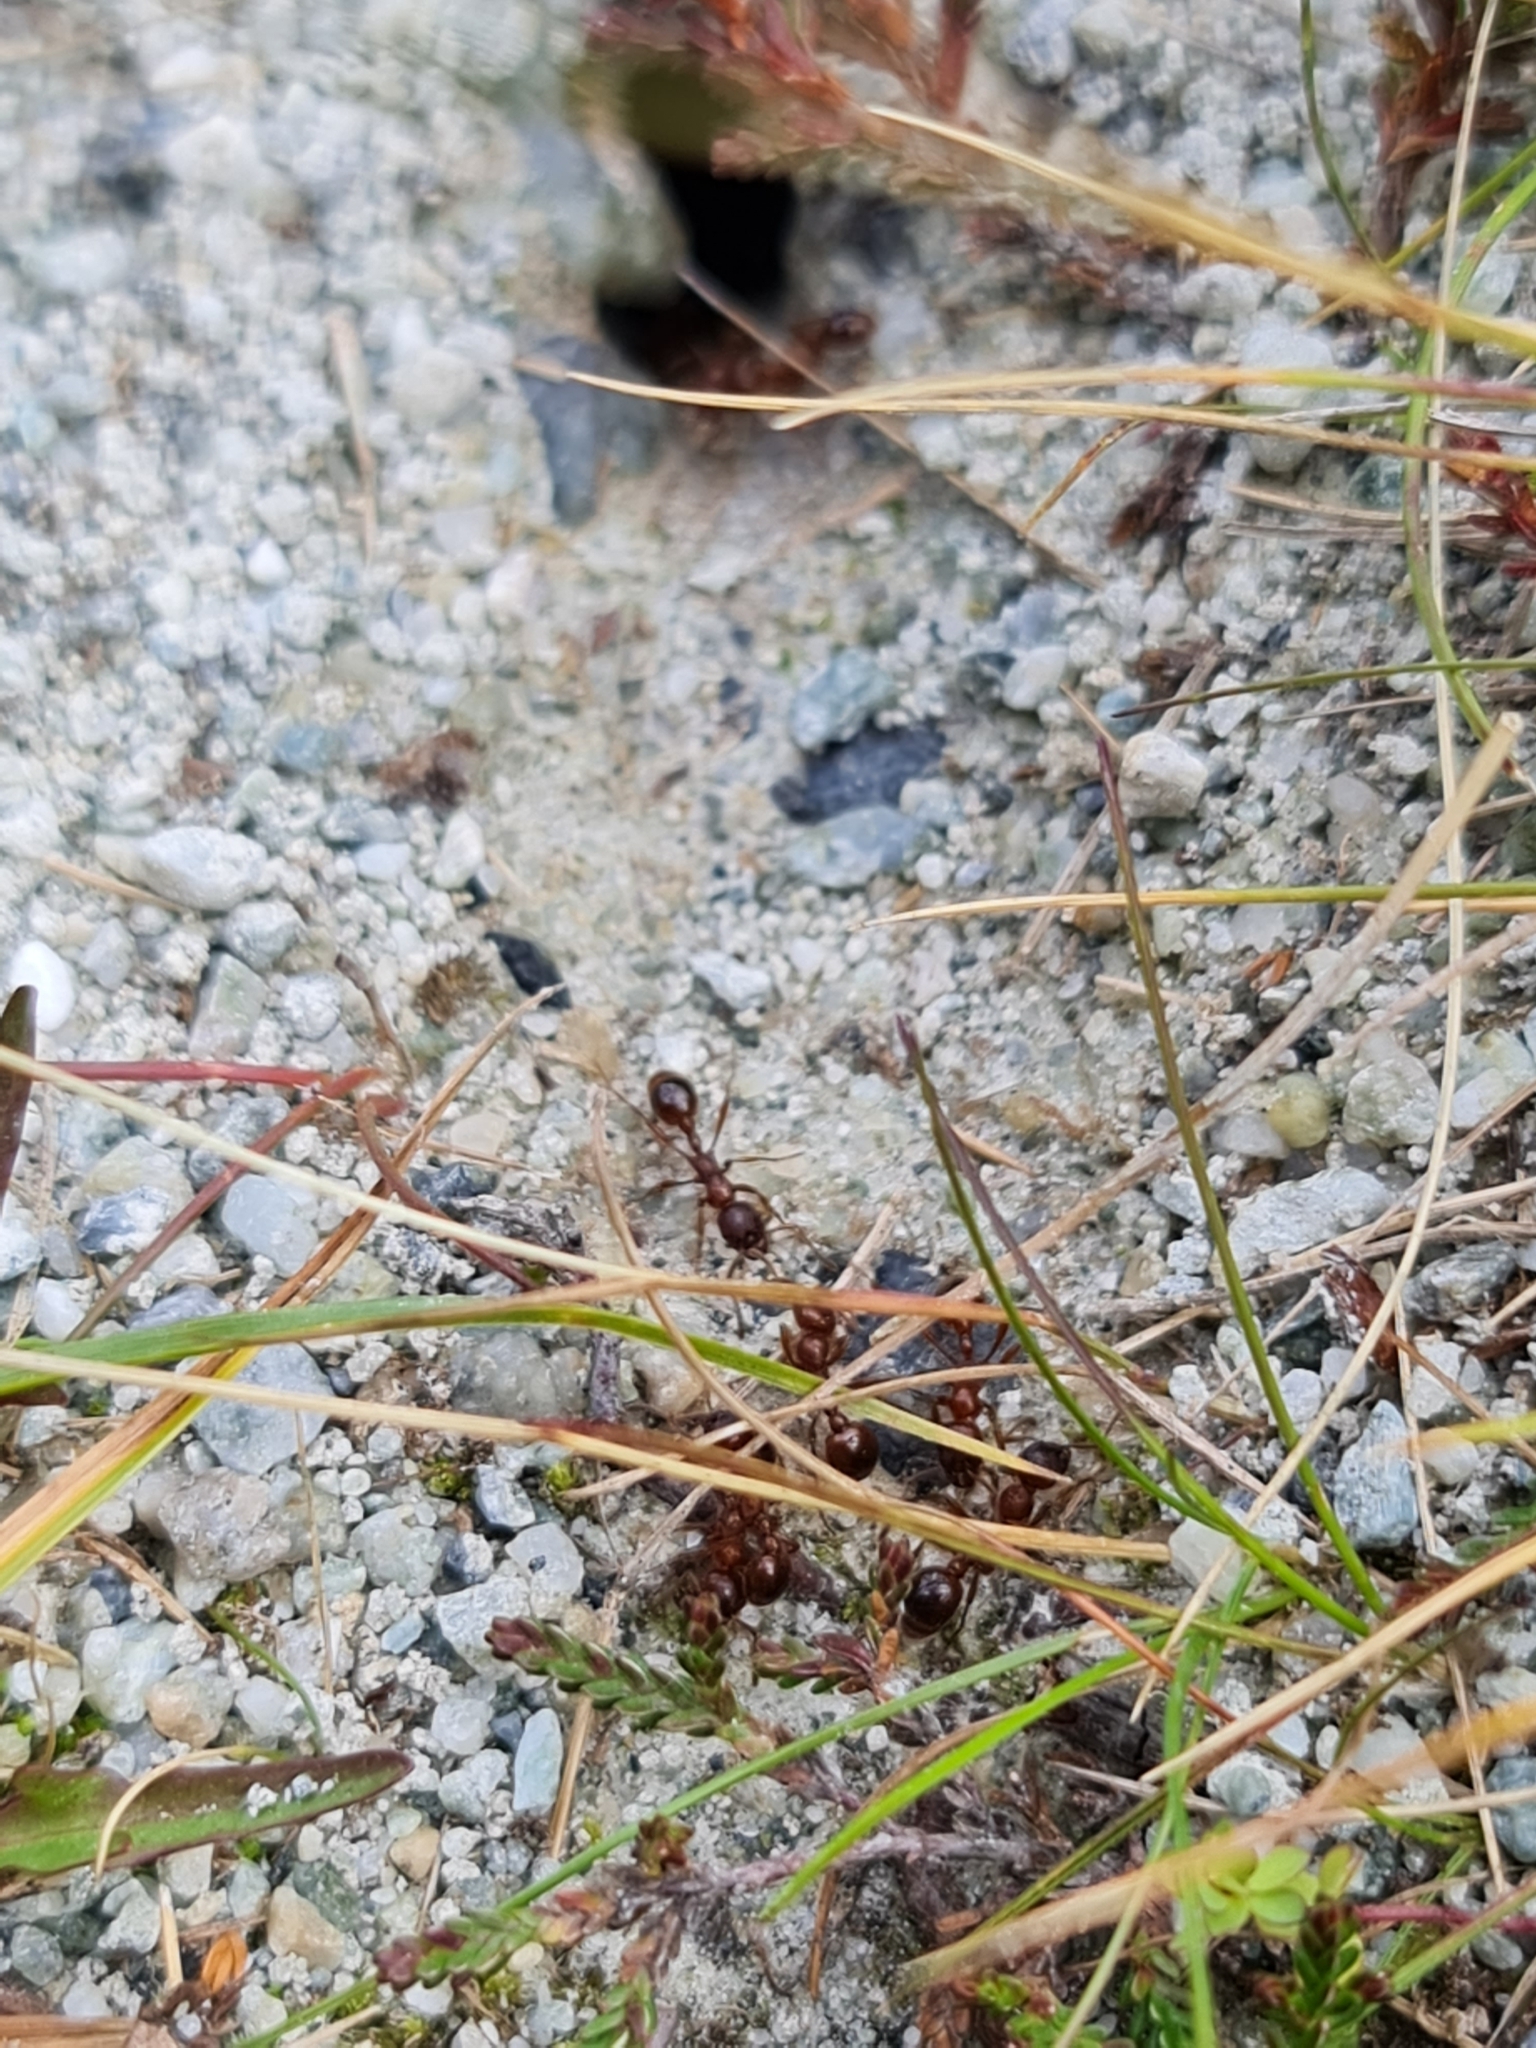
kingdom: Animalia
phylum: Arthropoda
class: Insecta
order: Hymenoptera
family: Formicidae
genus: Manica
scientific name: Manica rubida
